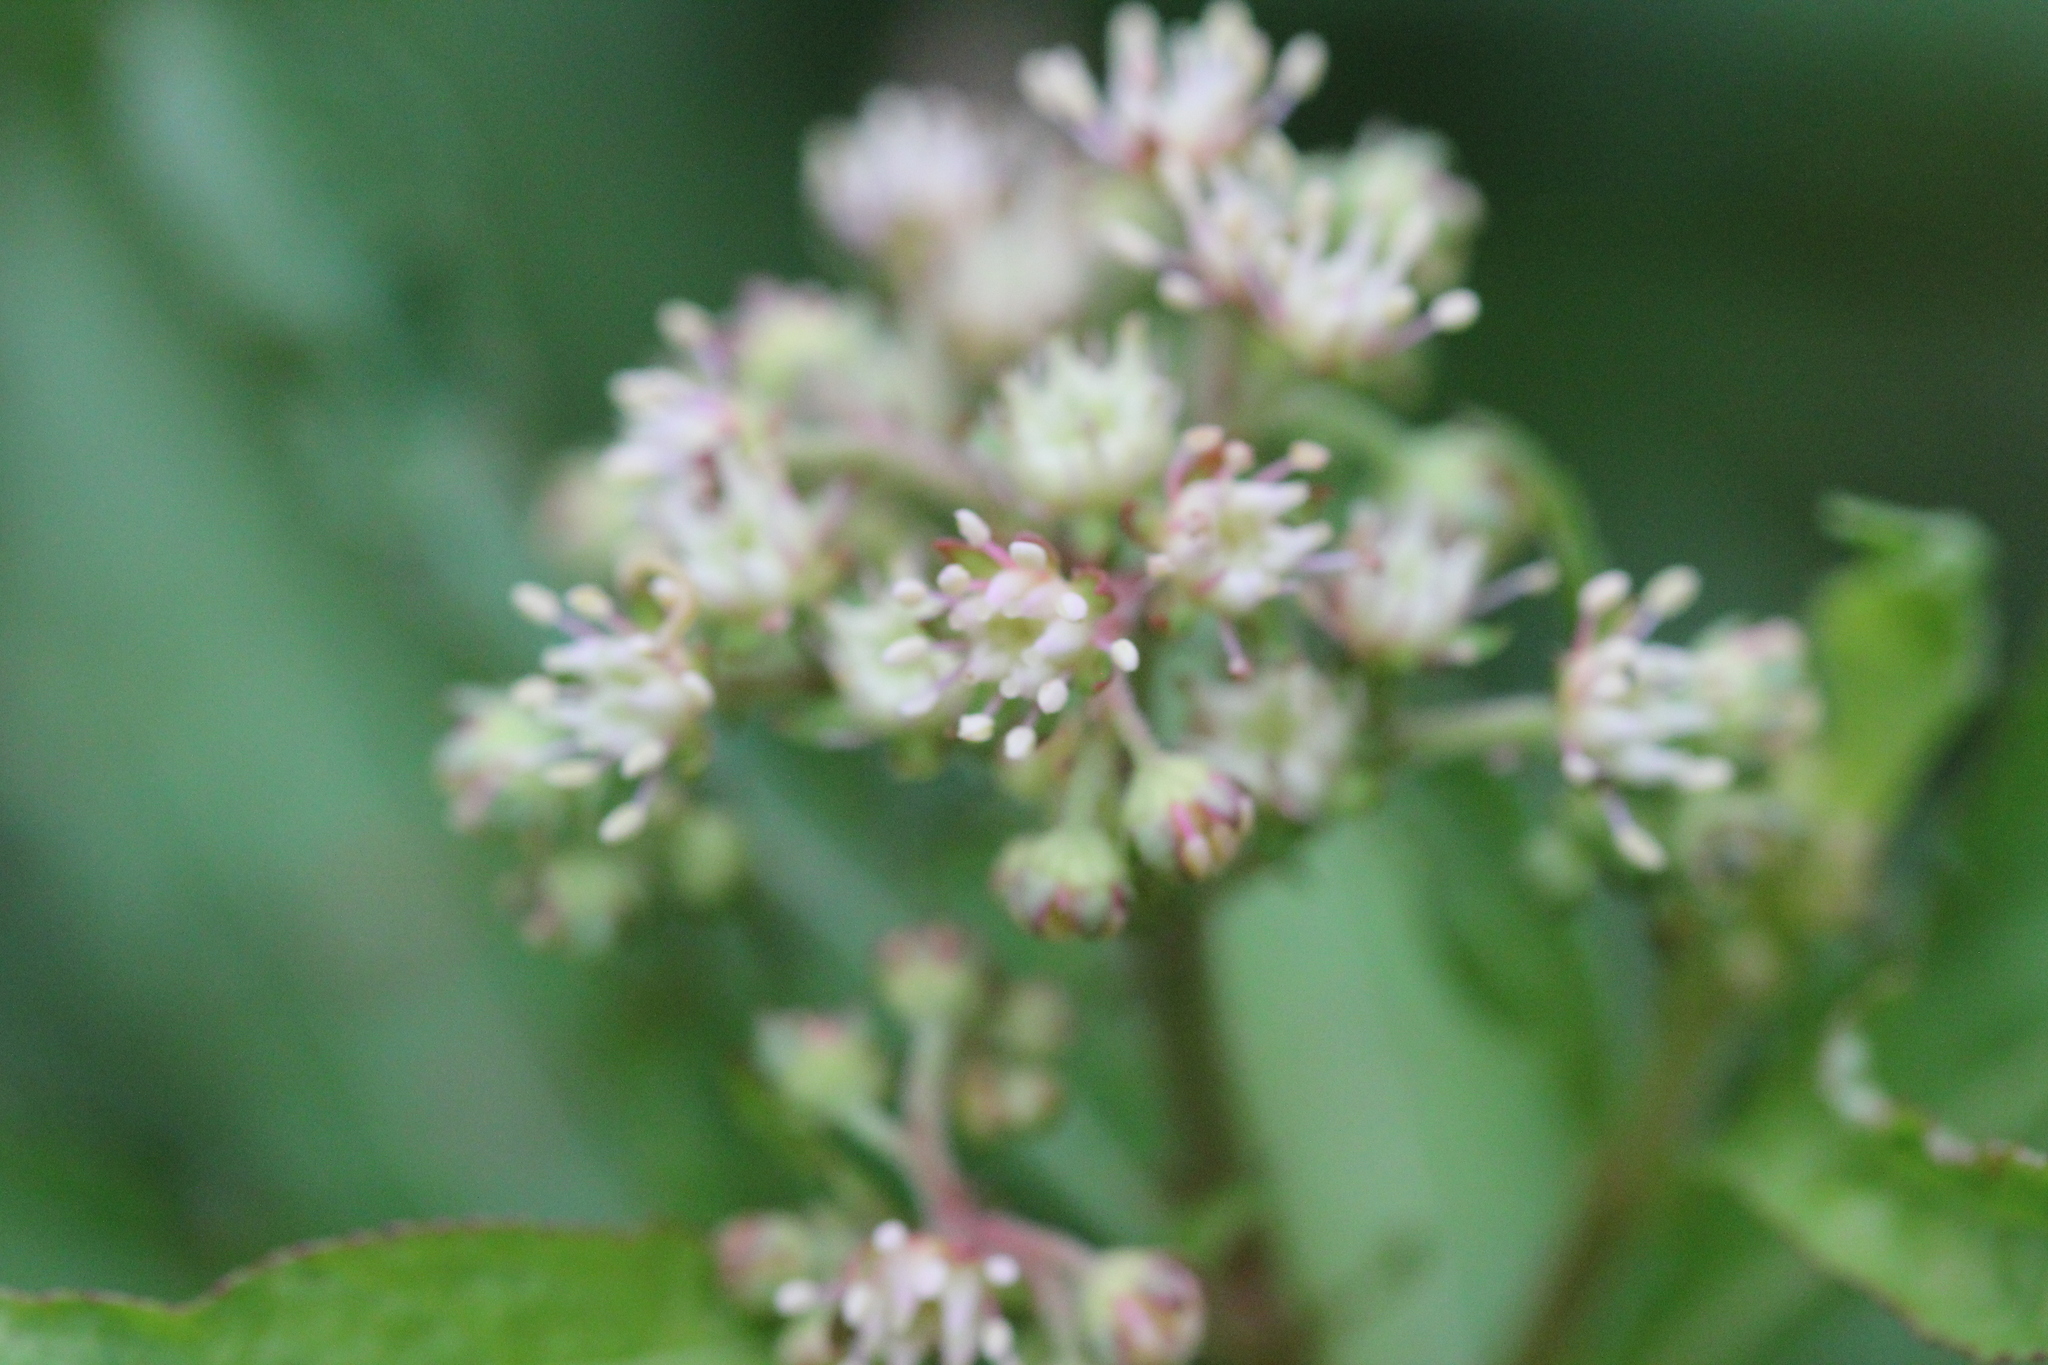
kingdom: Plantae
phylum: Tracheophyta
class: Magnoliopsida
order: Saxifragales
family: Penthoraceae
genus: Penthorum
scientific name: Penthorum sedoides
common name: Ditch stonecrop
